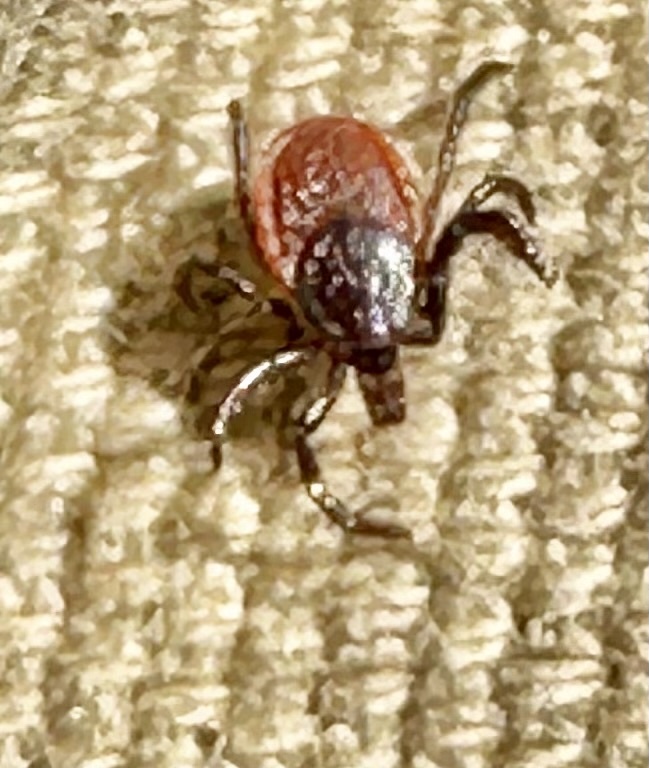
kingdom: Animalia
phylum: Arthropoda
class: Arachnida
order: Ixodida
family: Ixodidae
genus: Ixodes
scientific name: Ixodes pacificus
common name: California black-legged tick
